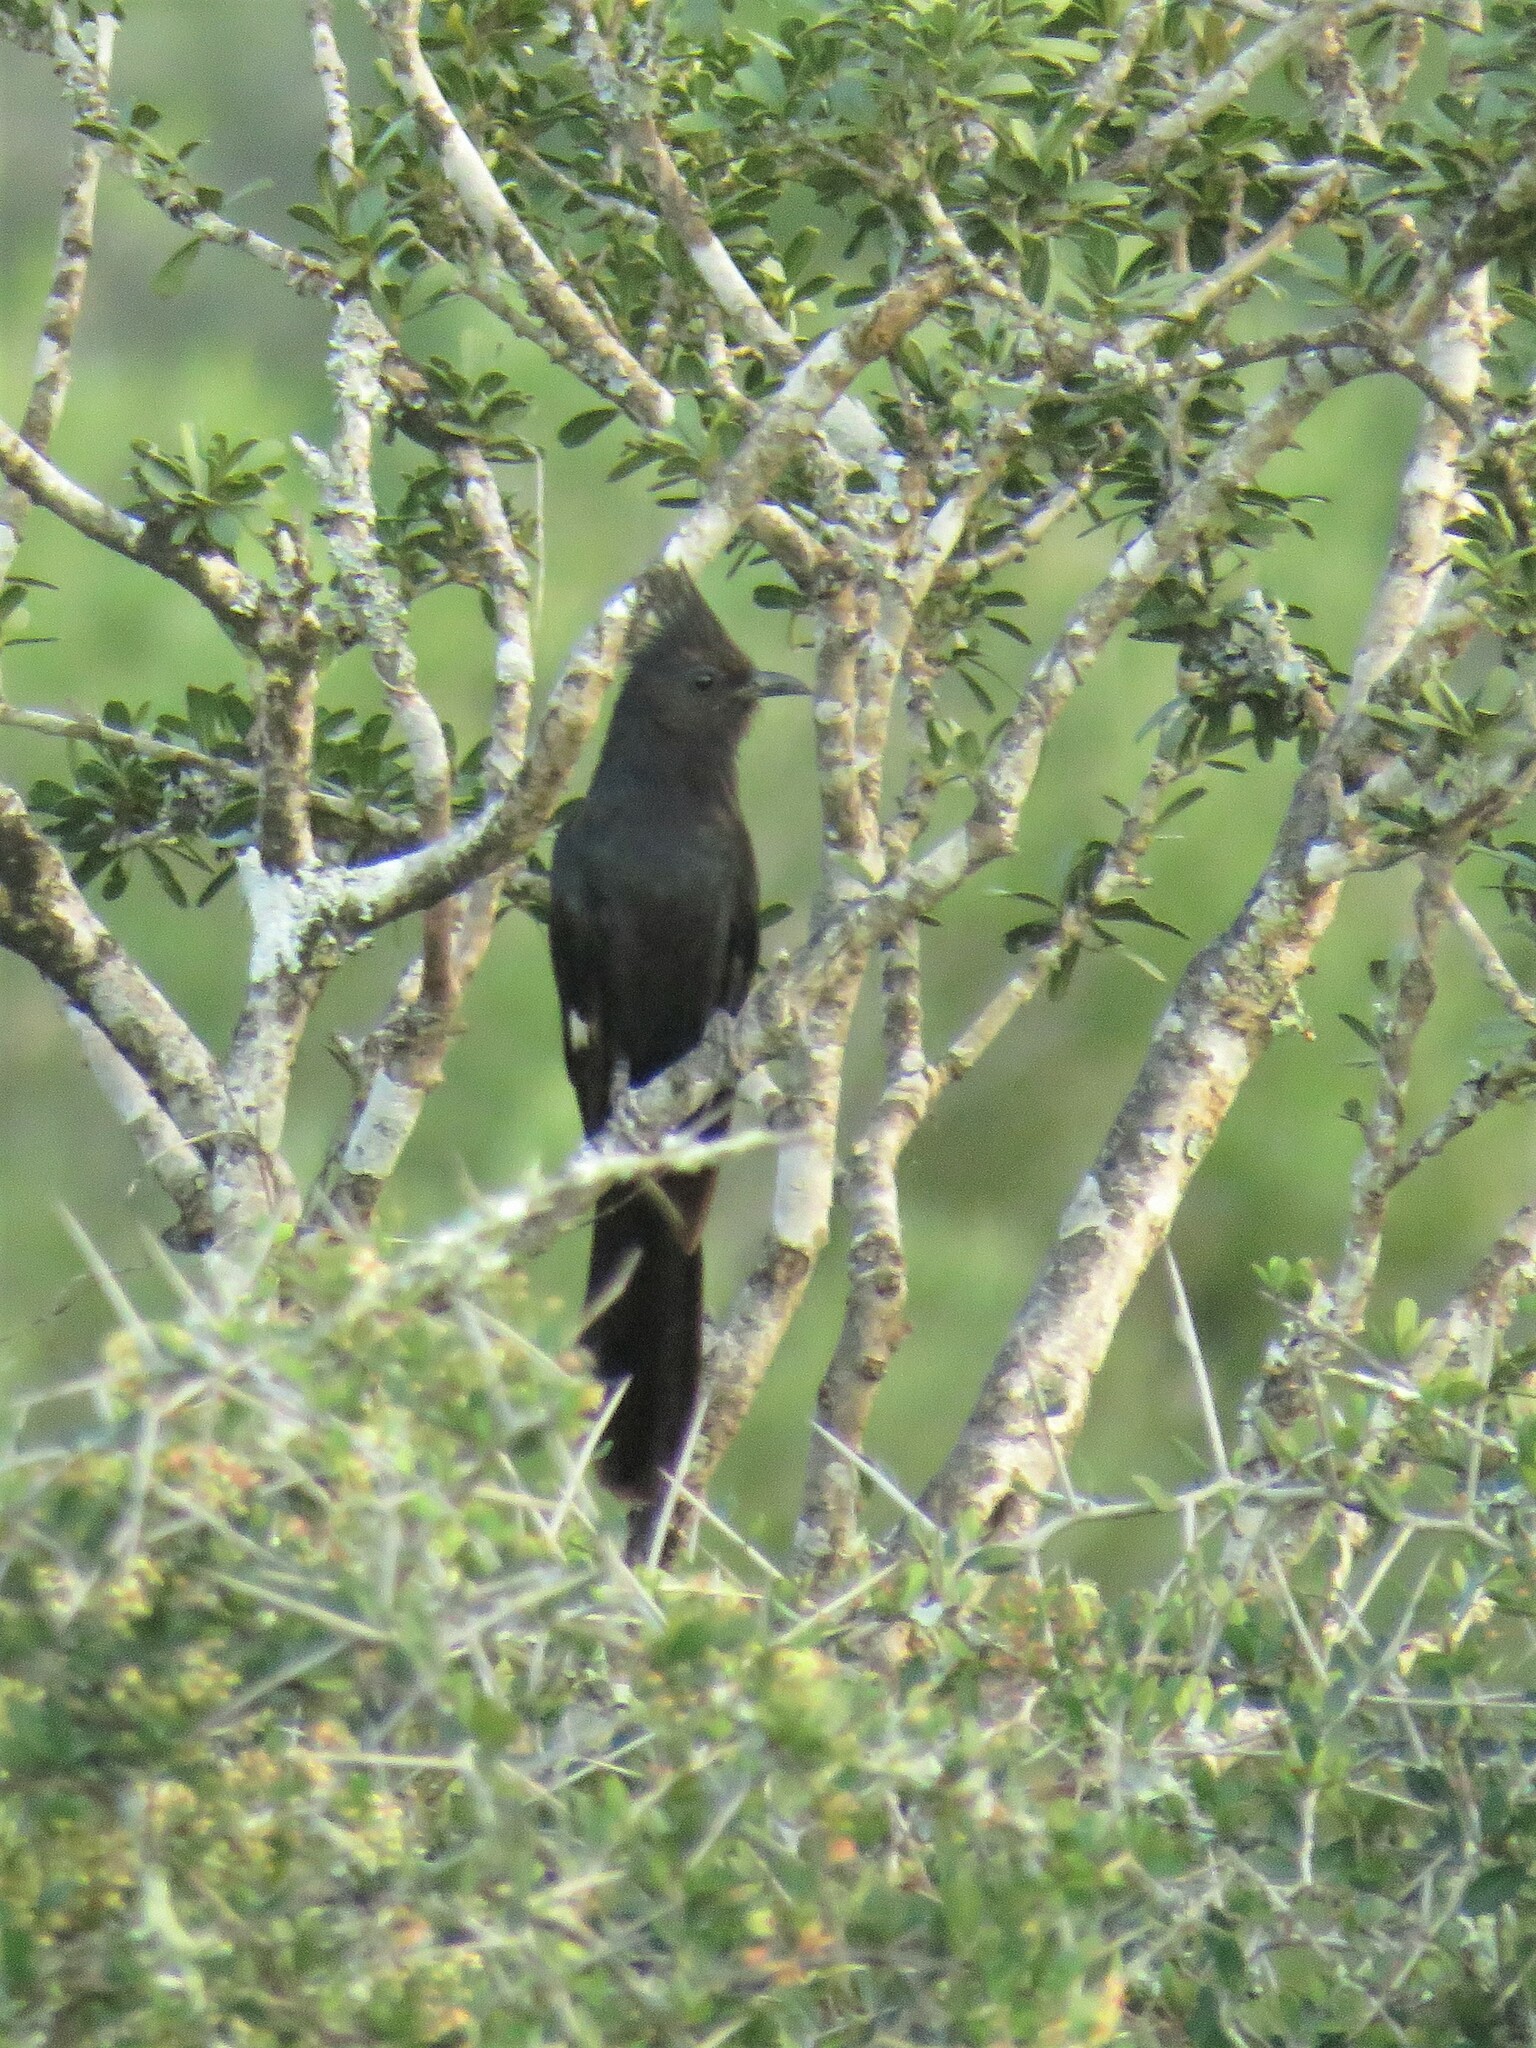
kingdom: Animalia
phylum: Chordata
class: Aves
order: Cuculiformes
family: Cuculidae
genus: Clamator
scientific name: Clamator jacobinus
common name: Jacobin cuckoo
